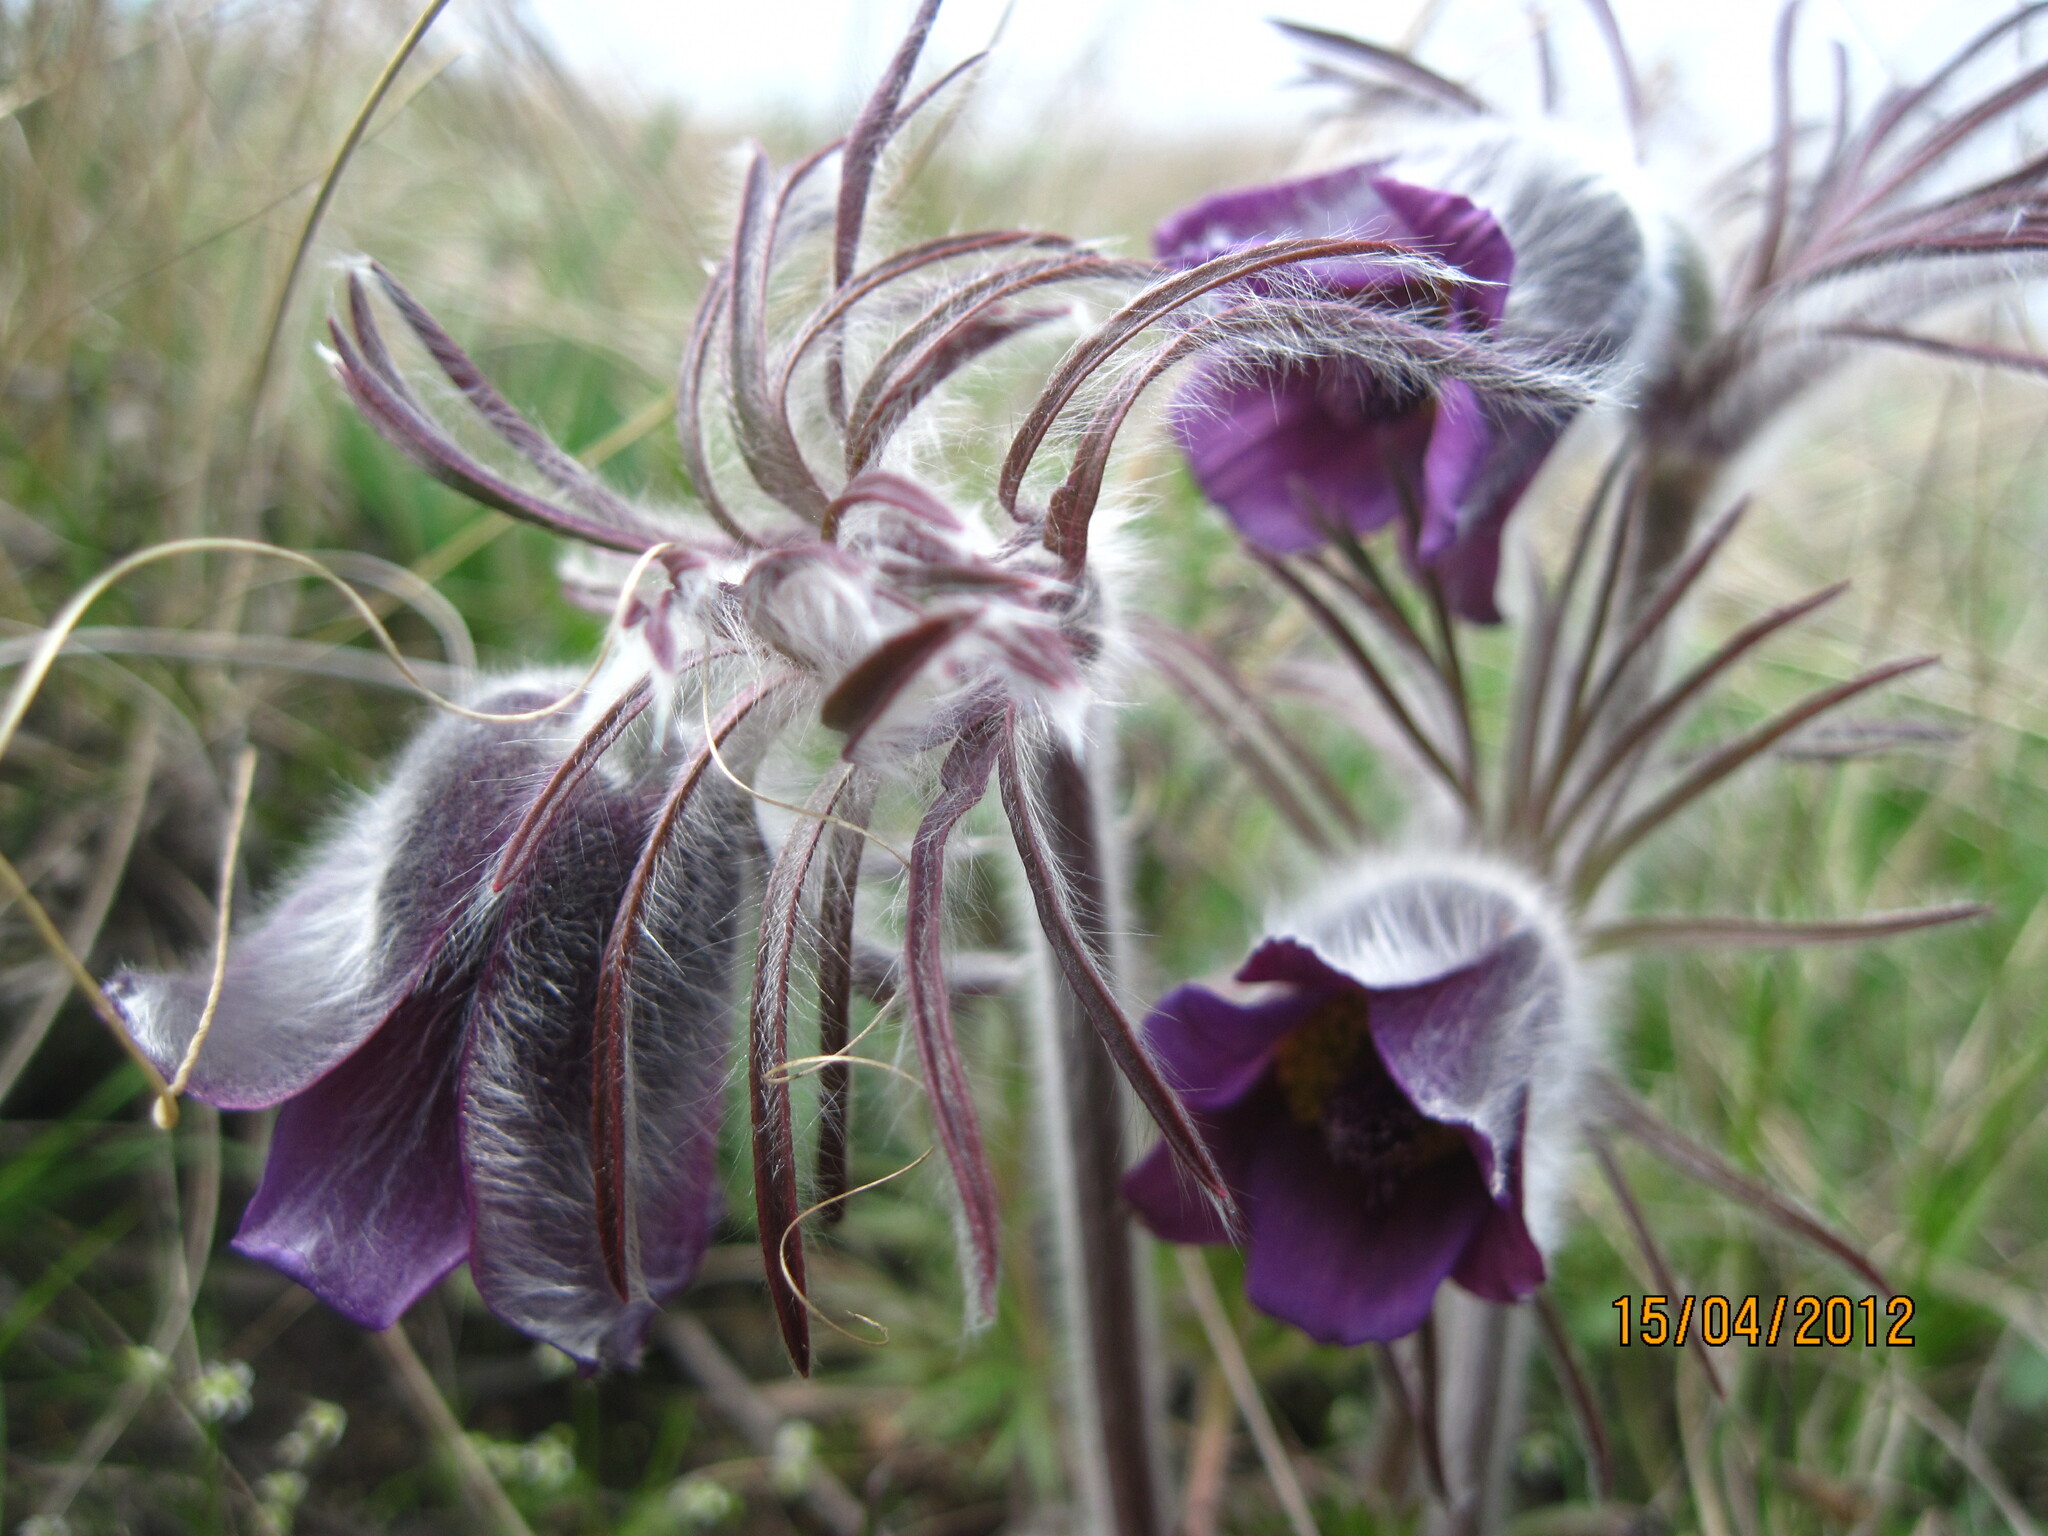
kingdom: Plantae
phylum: Tracheophyta
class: Magnoliopsida
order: Ranunculales
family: Ranunculaceae
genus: Pulsatilla
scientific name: Pulsatilla pratensis
